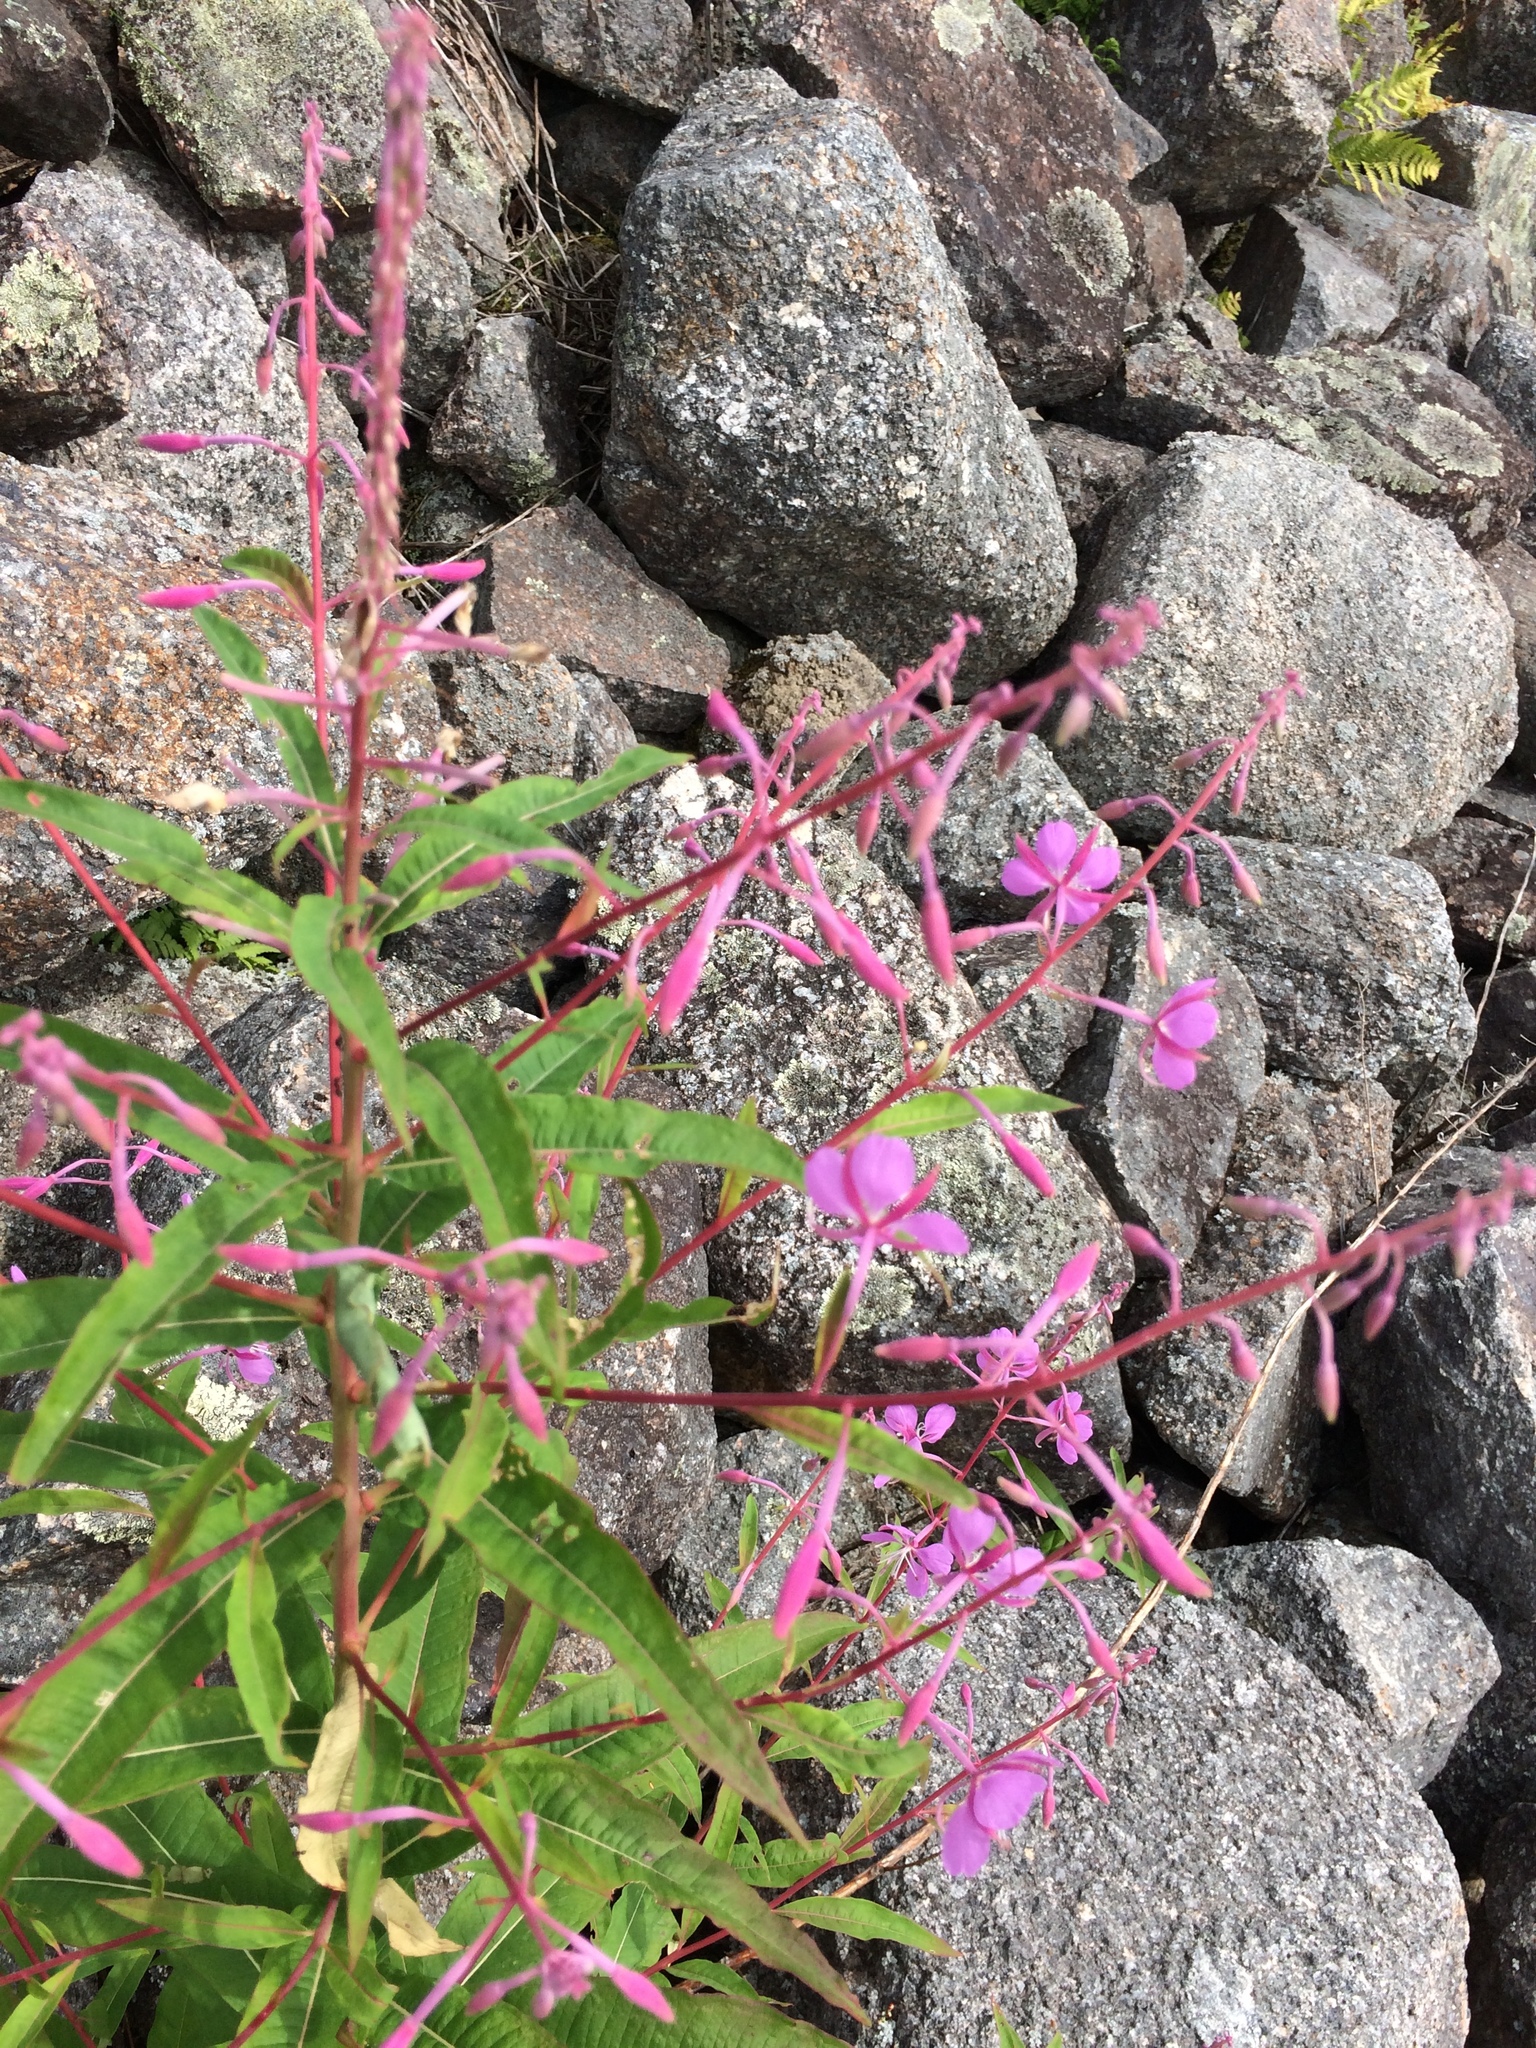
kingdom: Plantae
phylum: Tracheophyta
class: Magnoliopsida
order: Myrtales
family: Onagraceae
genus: Chamaenerion
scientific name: Chamaenerion angustifolium
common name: Fireweed
